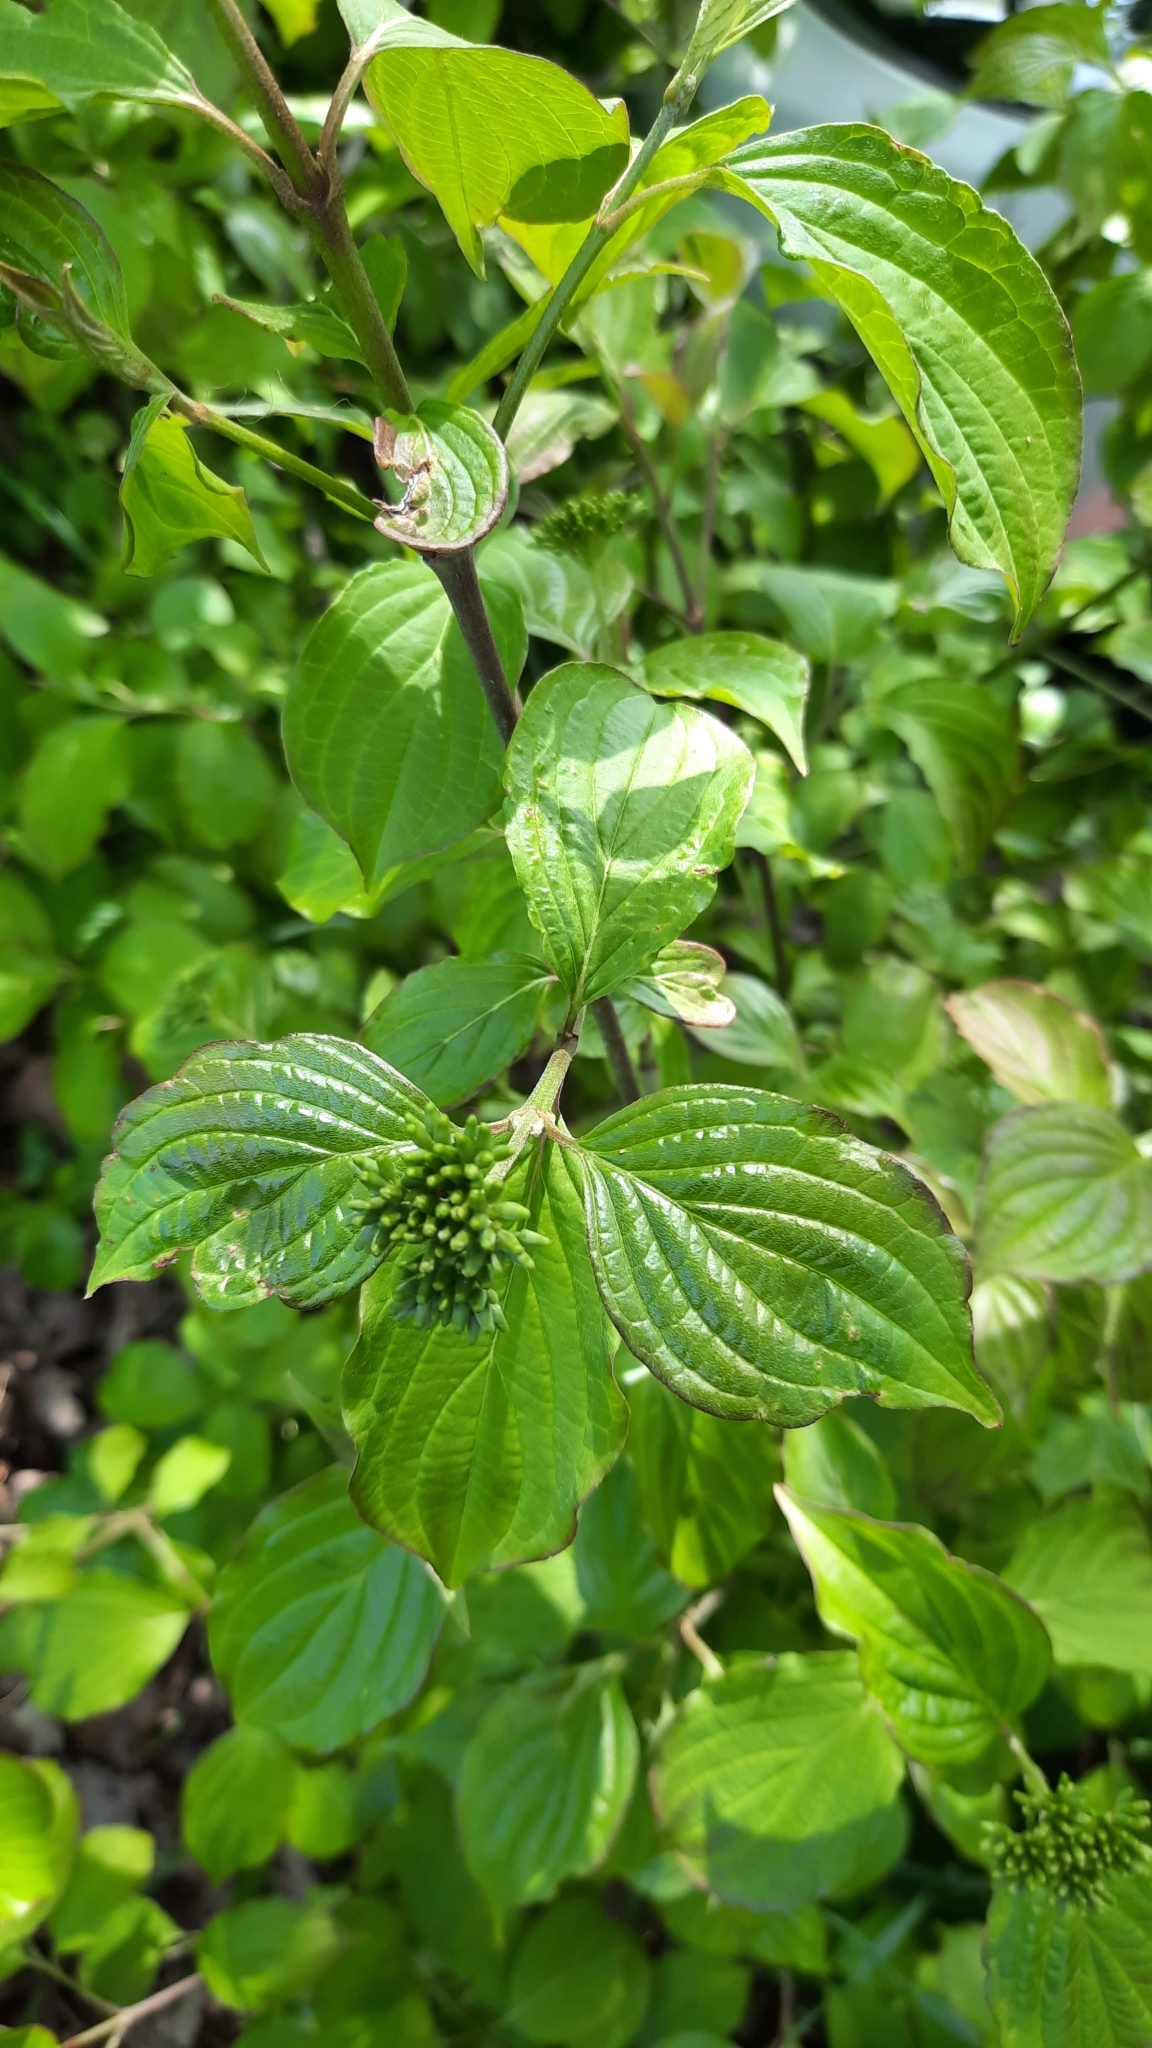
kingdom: Plantae
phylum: Tracheophyta
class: Magnoliopsida
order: Cornales
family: Cornaceae
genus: Cornus
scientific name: Cornus sanguinea
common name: Dogwood
